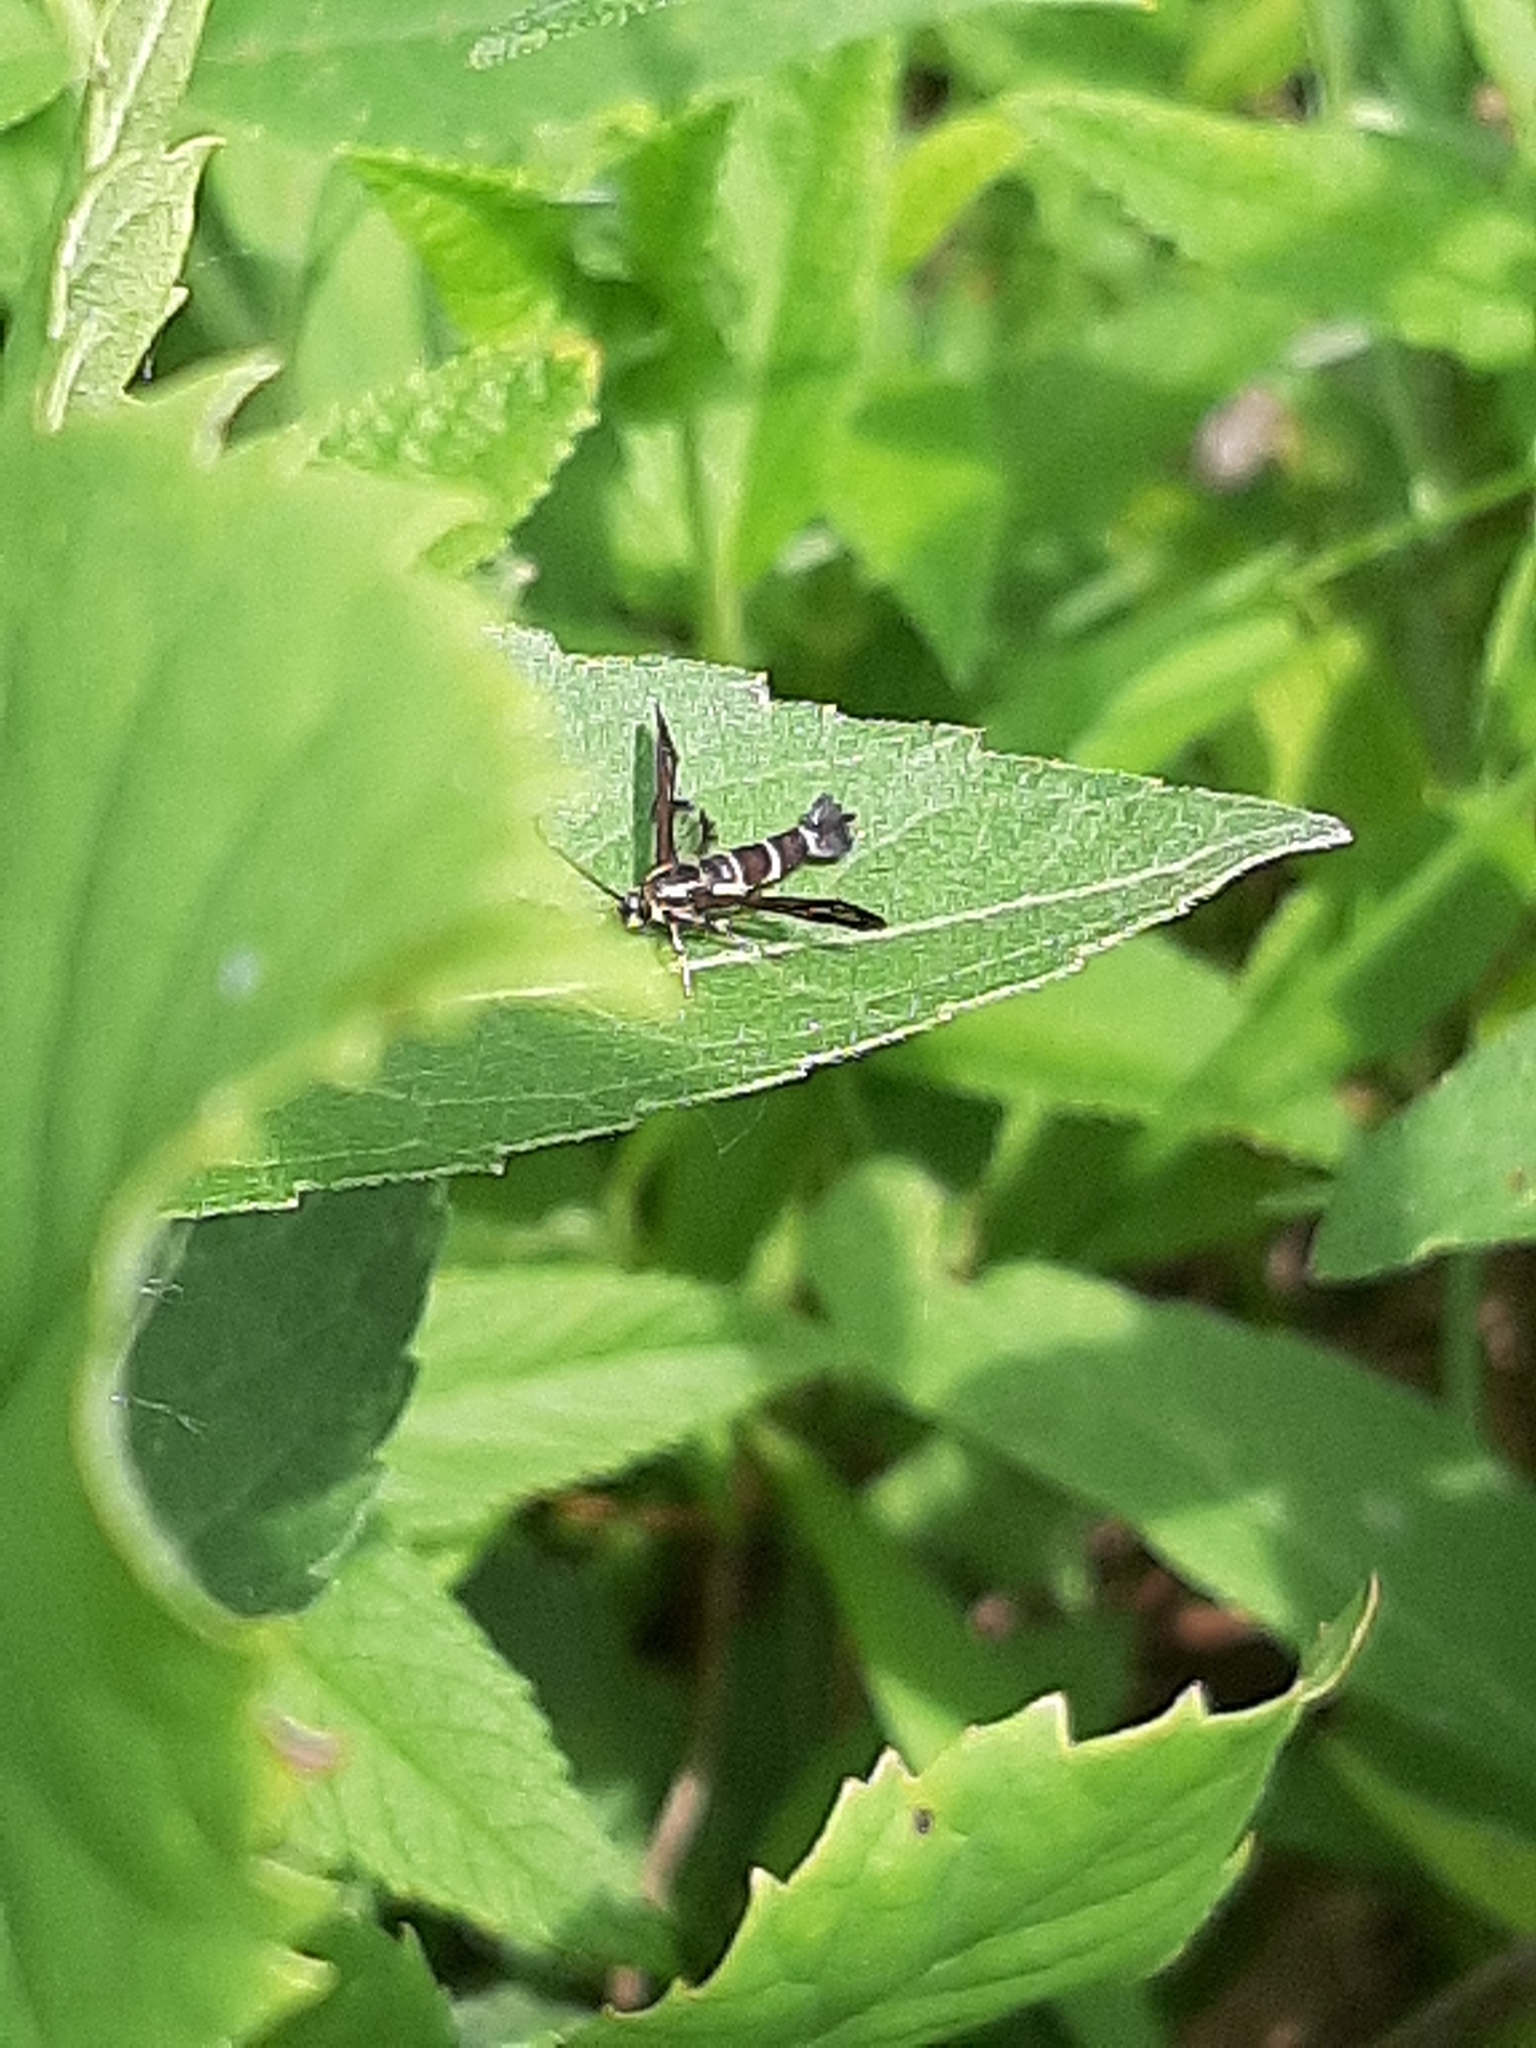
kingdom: Animalia
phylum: Arthropoda
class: Insecta
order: Lepidoptera
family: Sesiidae
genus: Carmenta
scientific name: Carmenta ithacae
